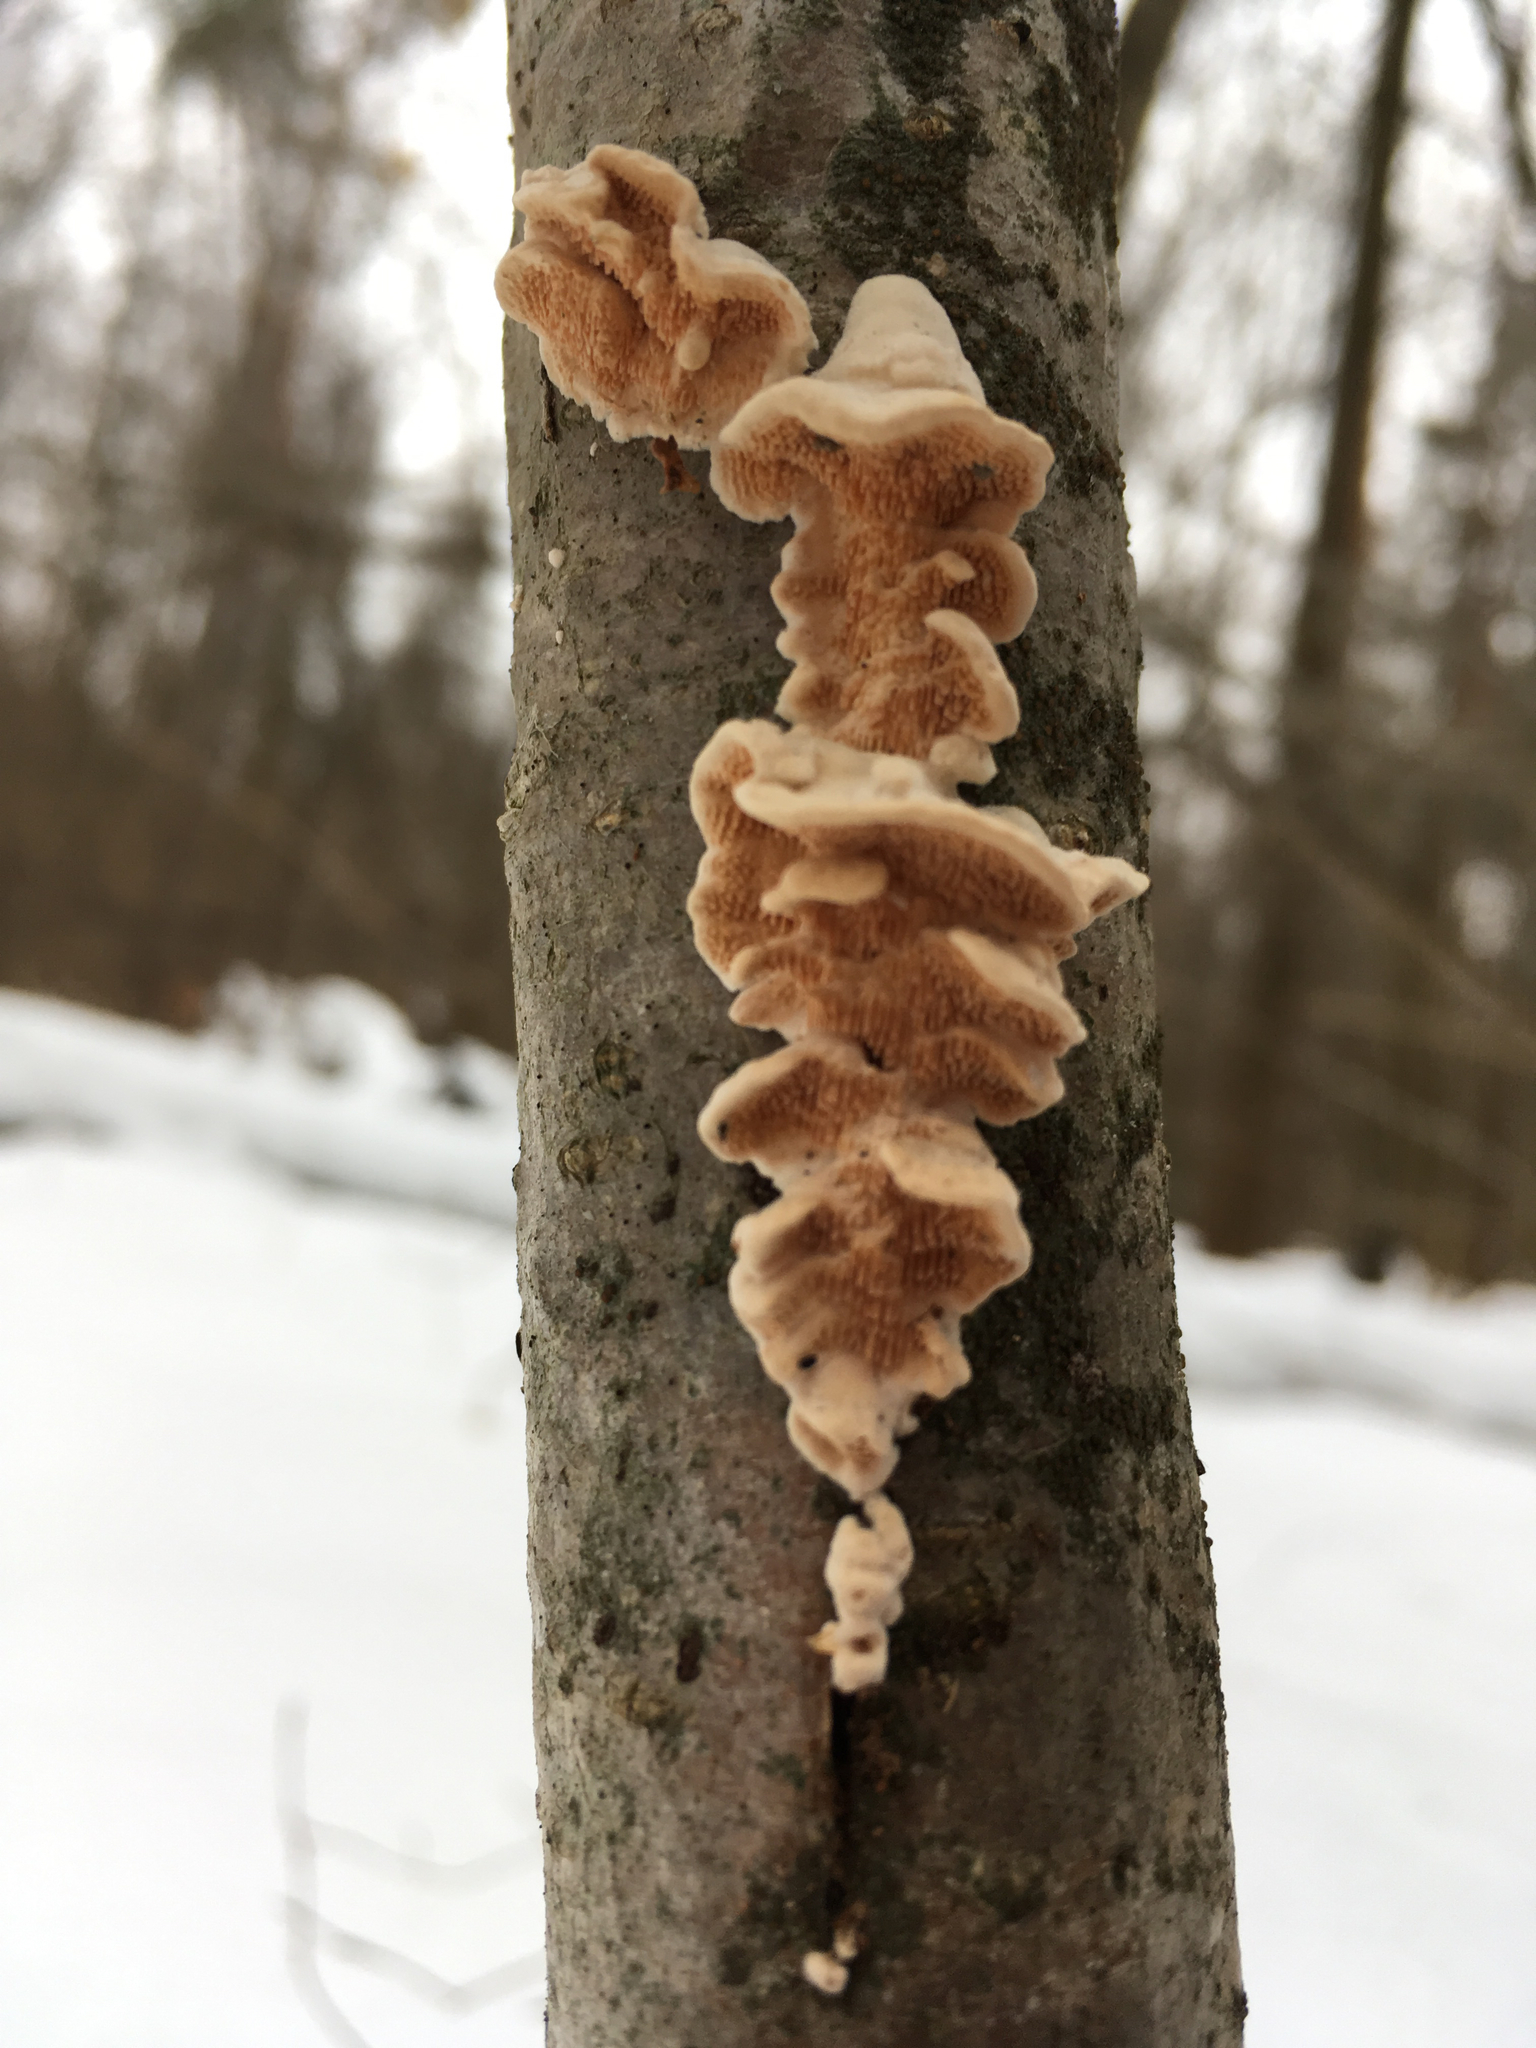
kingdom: Fungi
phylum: Basidiomycota
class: Agaricomycetes
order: Polyporales
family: Steccherinaceae
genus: Steccherinum
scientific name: Steccherinum ochraceum
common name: Ochre spreading tooth
